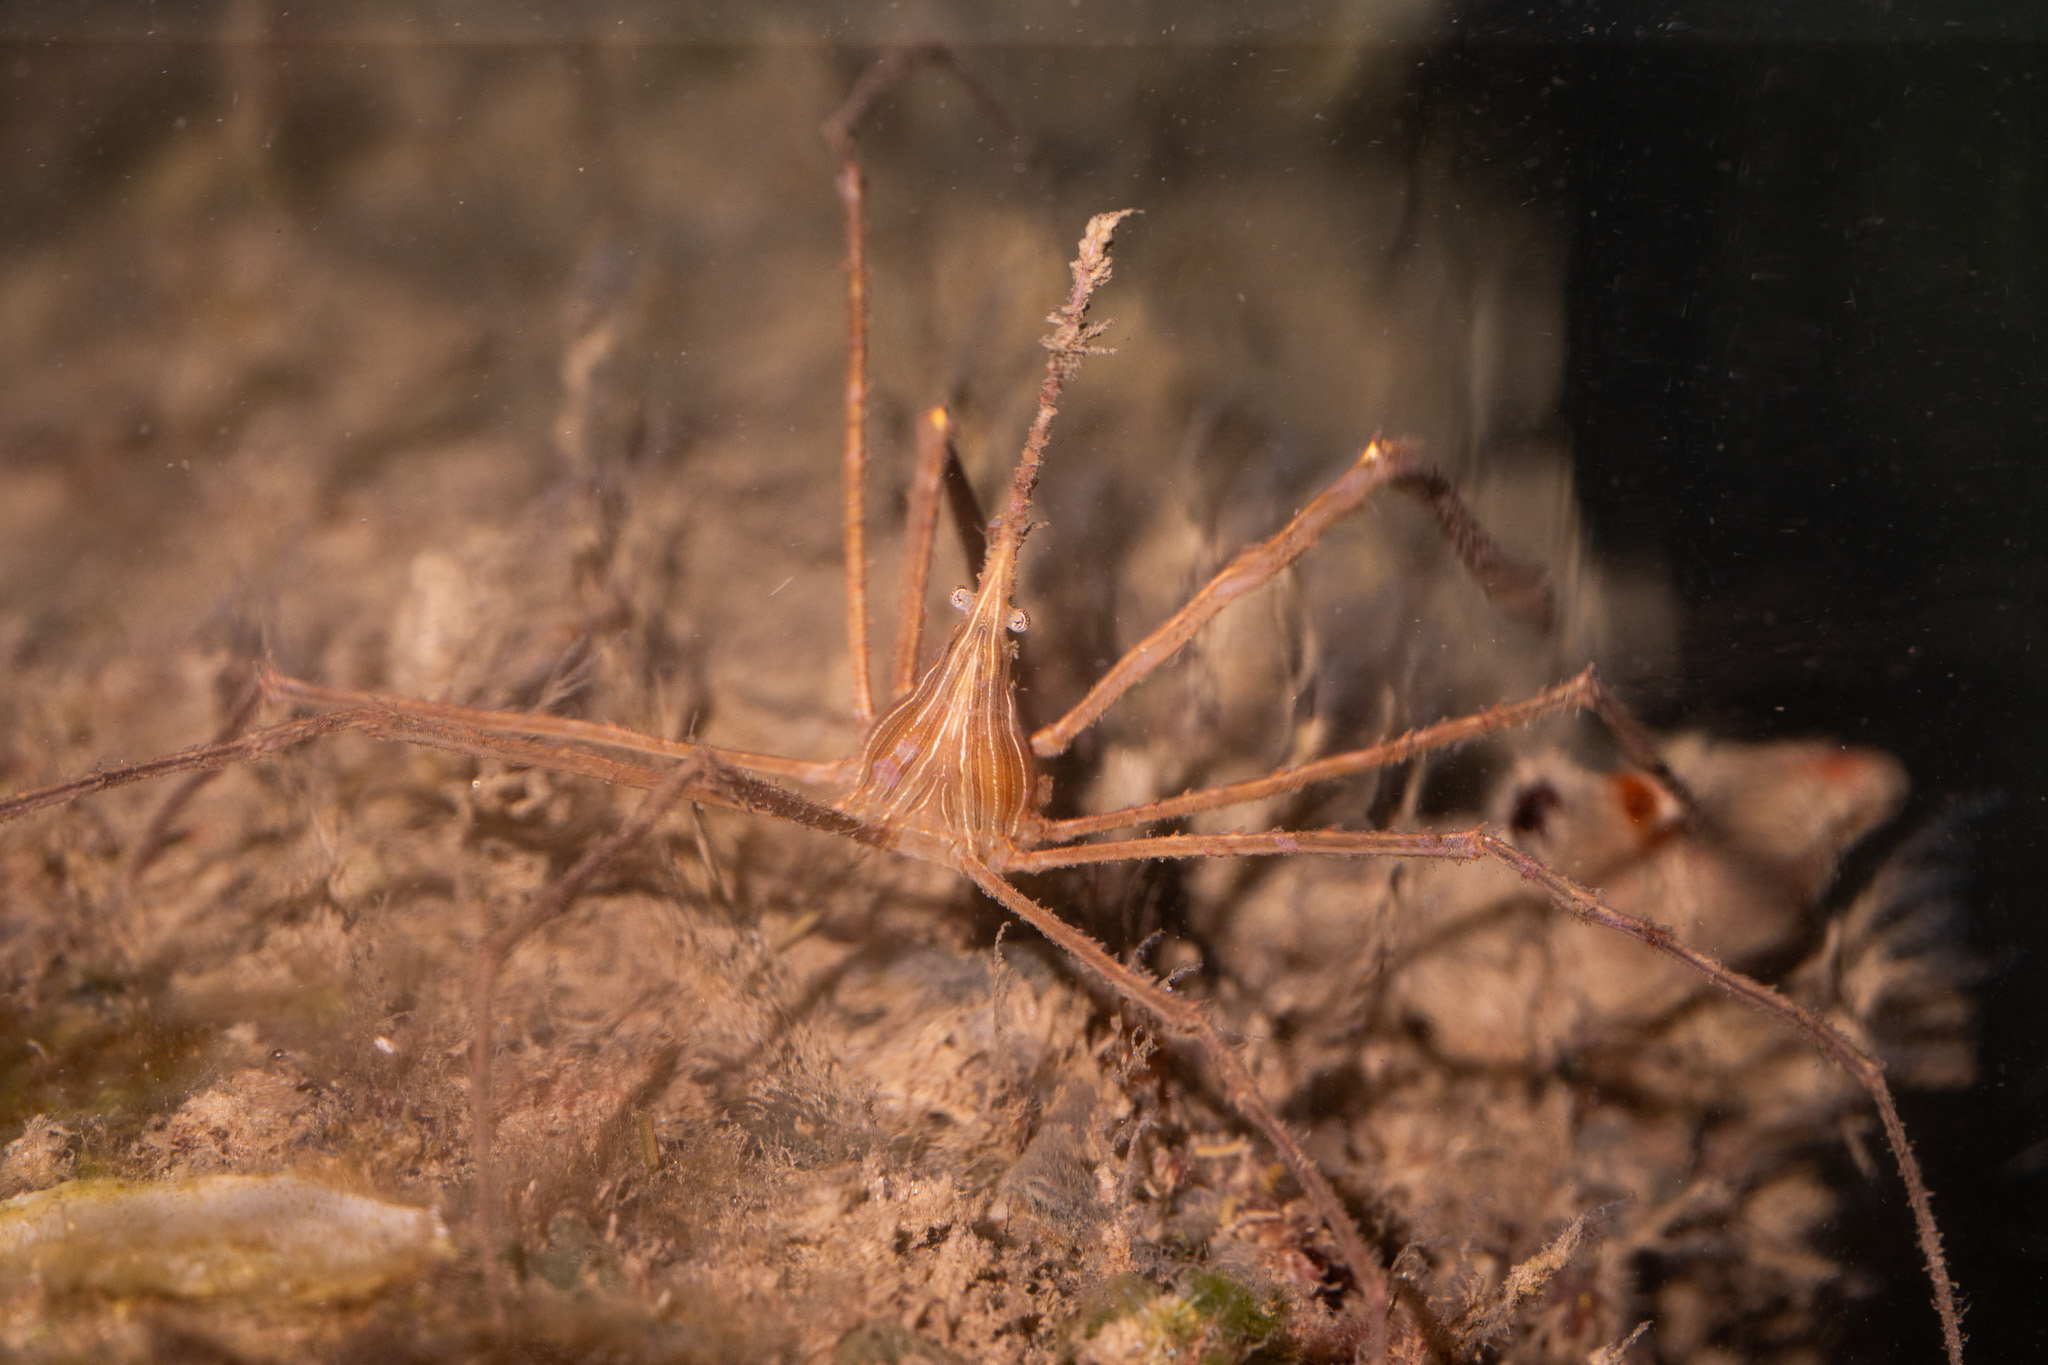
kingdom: Animalia
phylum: Arthropoda
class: Malacostraca
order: Decapoda
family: Inachoididae
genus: Stenorhynchus
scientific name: Stenorhynchus seticornis
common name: Arrow crab
